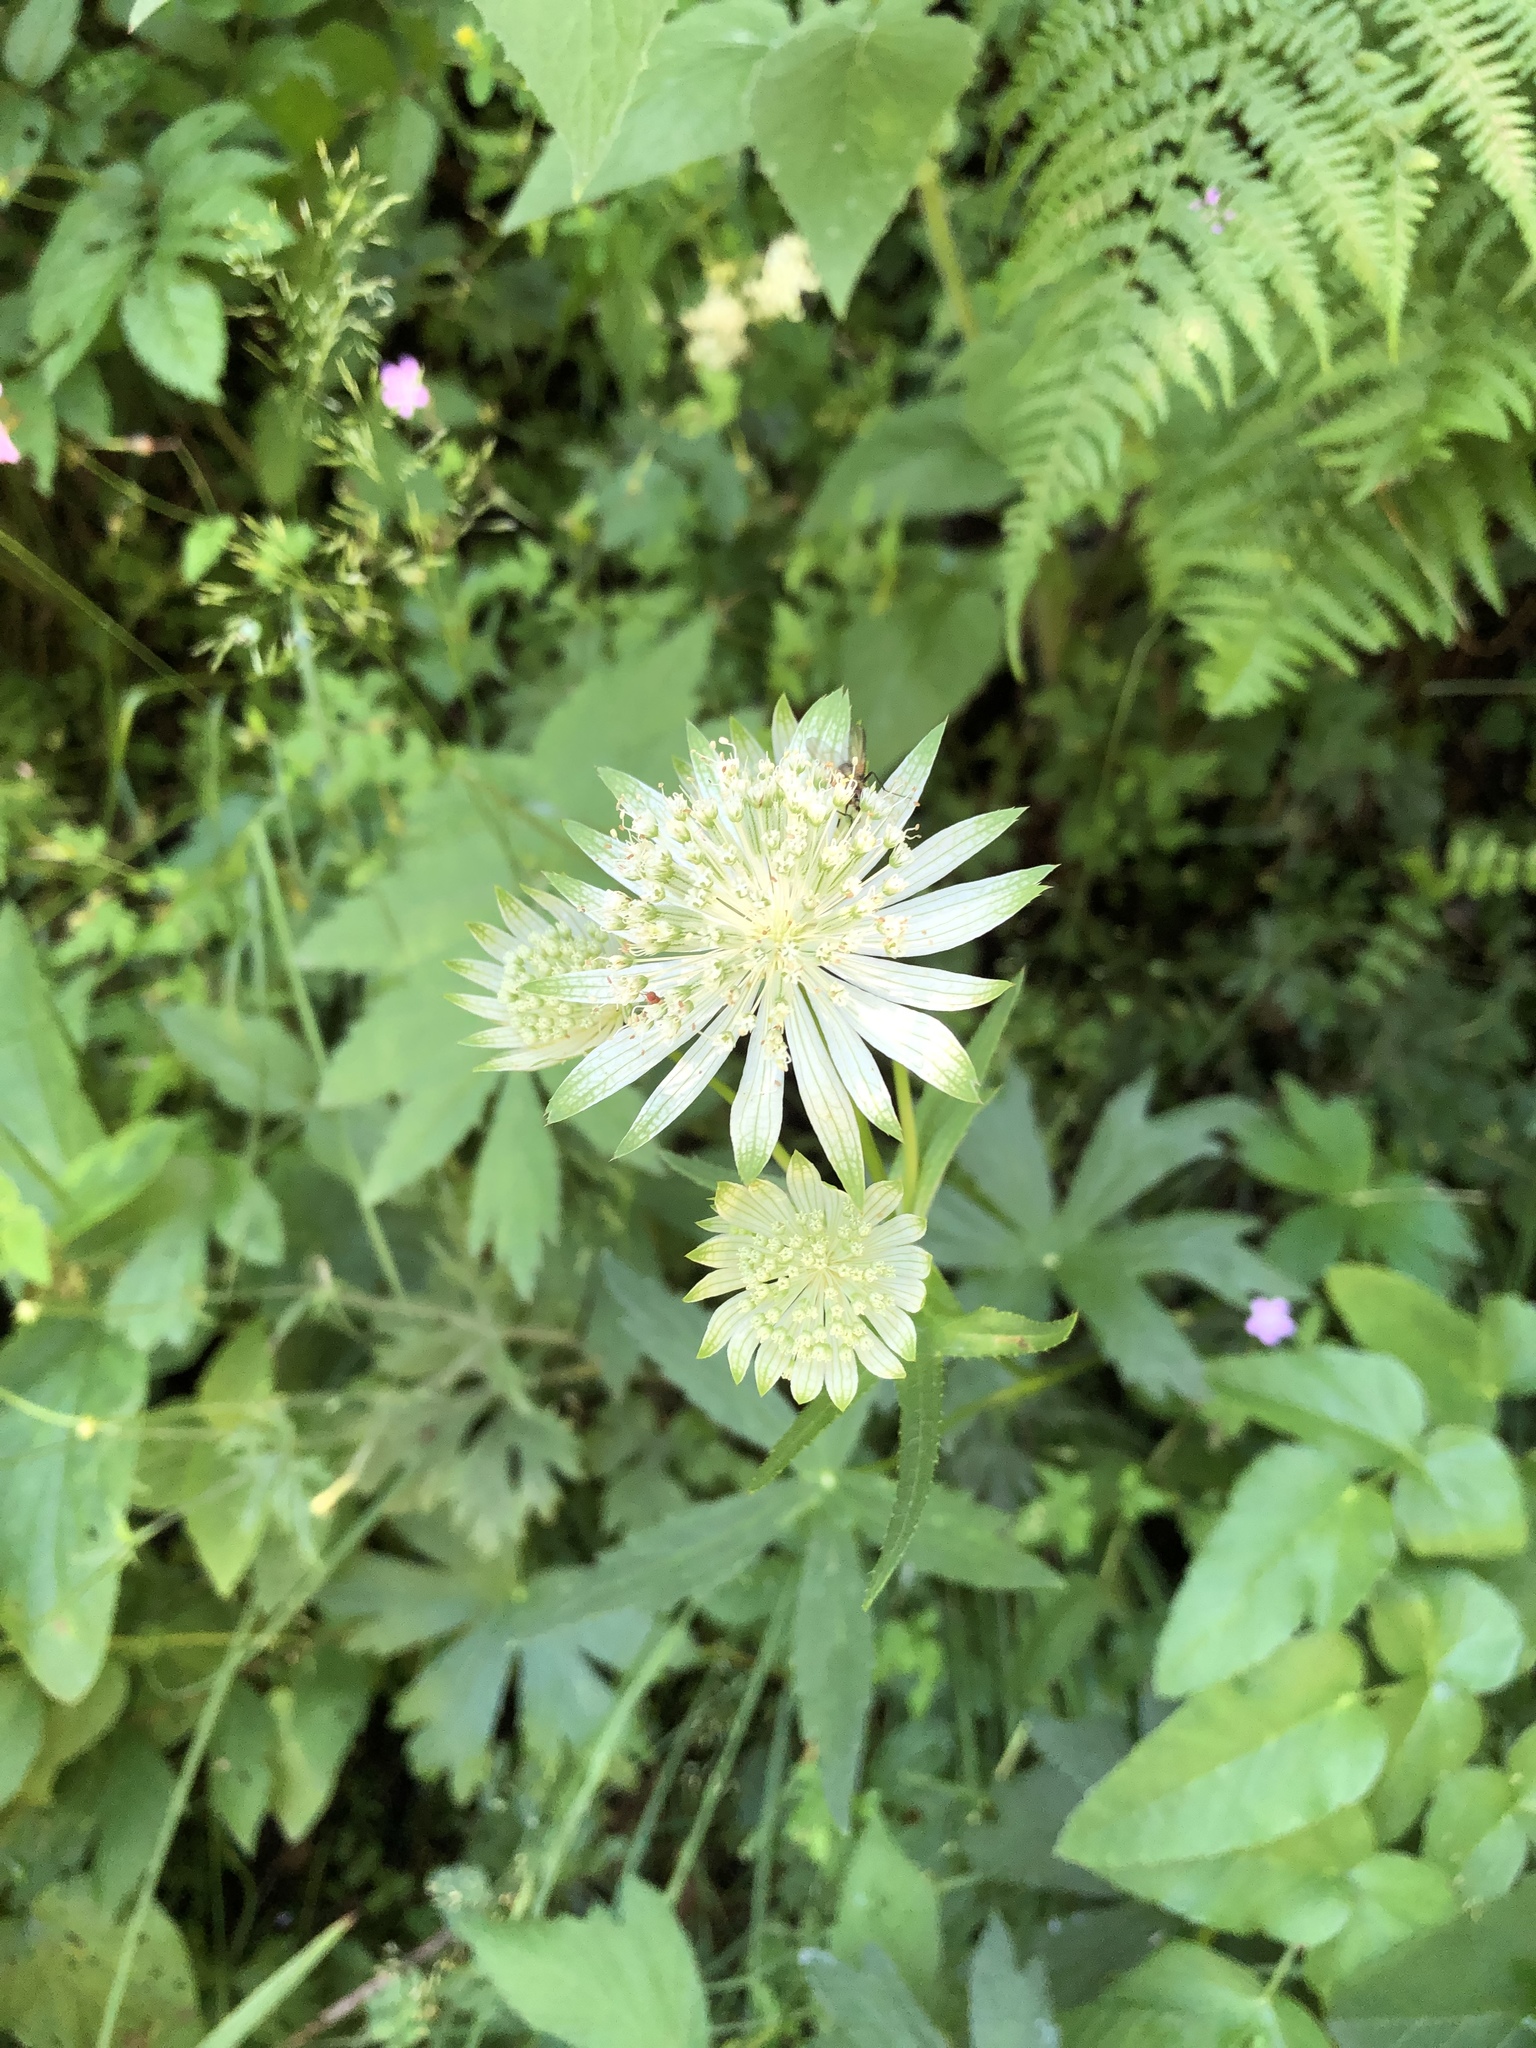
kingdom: Plantae
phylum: Tracheophyta
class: Magnoliopsida
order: Apiales
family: Apiaceae
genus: Astrantia
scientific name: Astrantia major
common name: Greater masterwort
